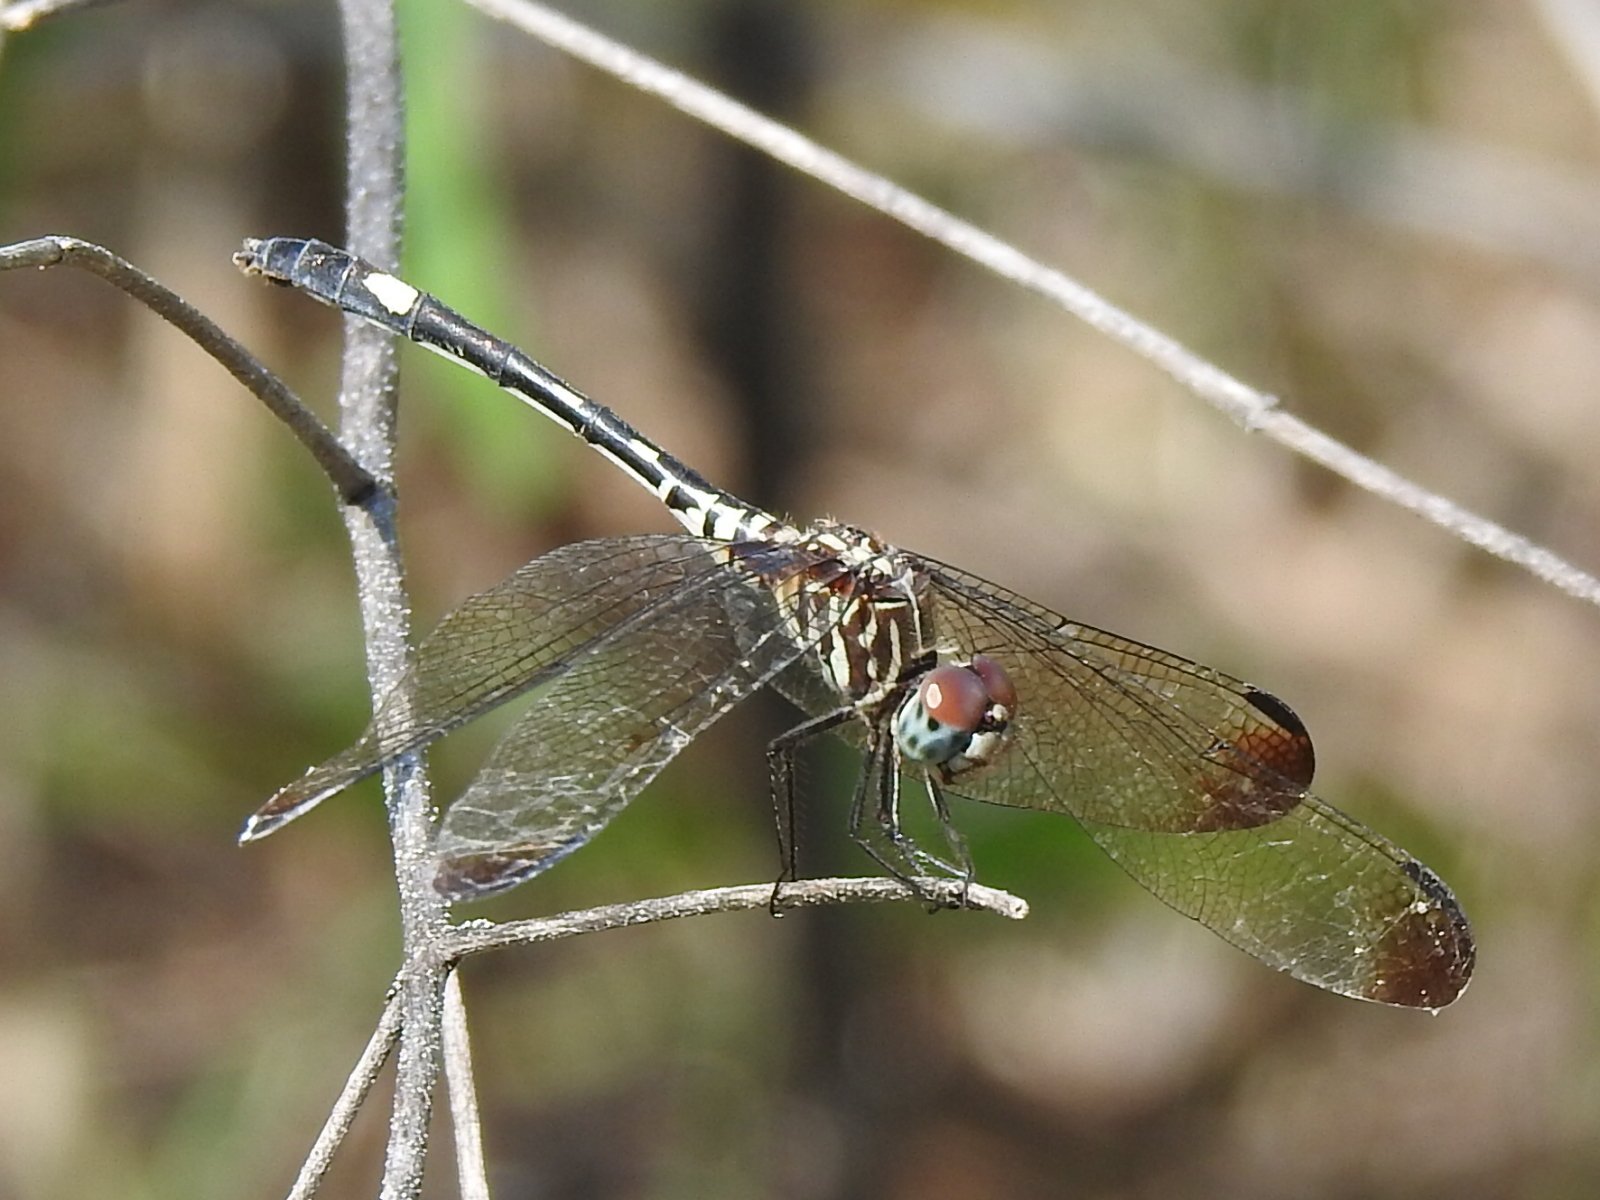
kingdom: Animalia
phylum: Arthropoda
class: Insecta
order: Odonata
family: Libellulidae
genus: Dythemis
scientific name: Dythemis velox
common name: Swift setwing
